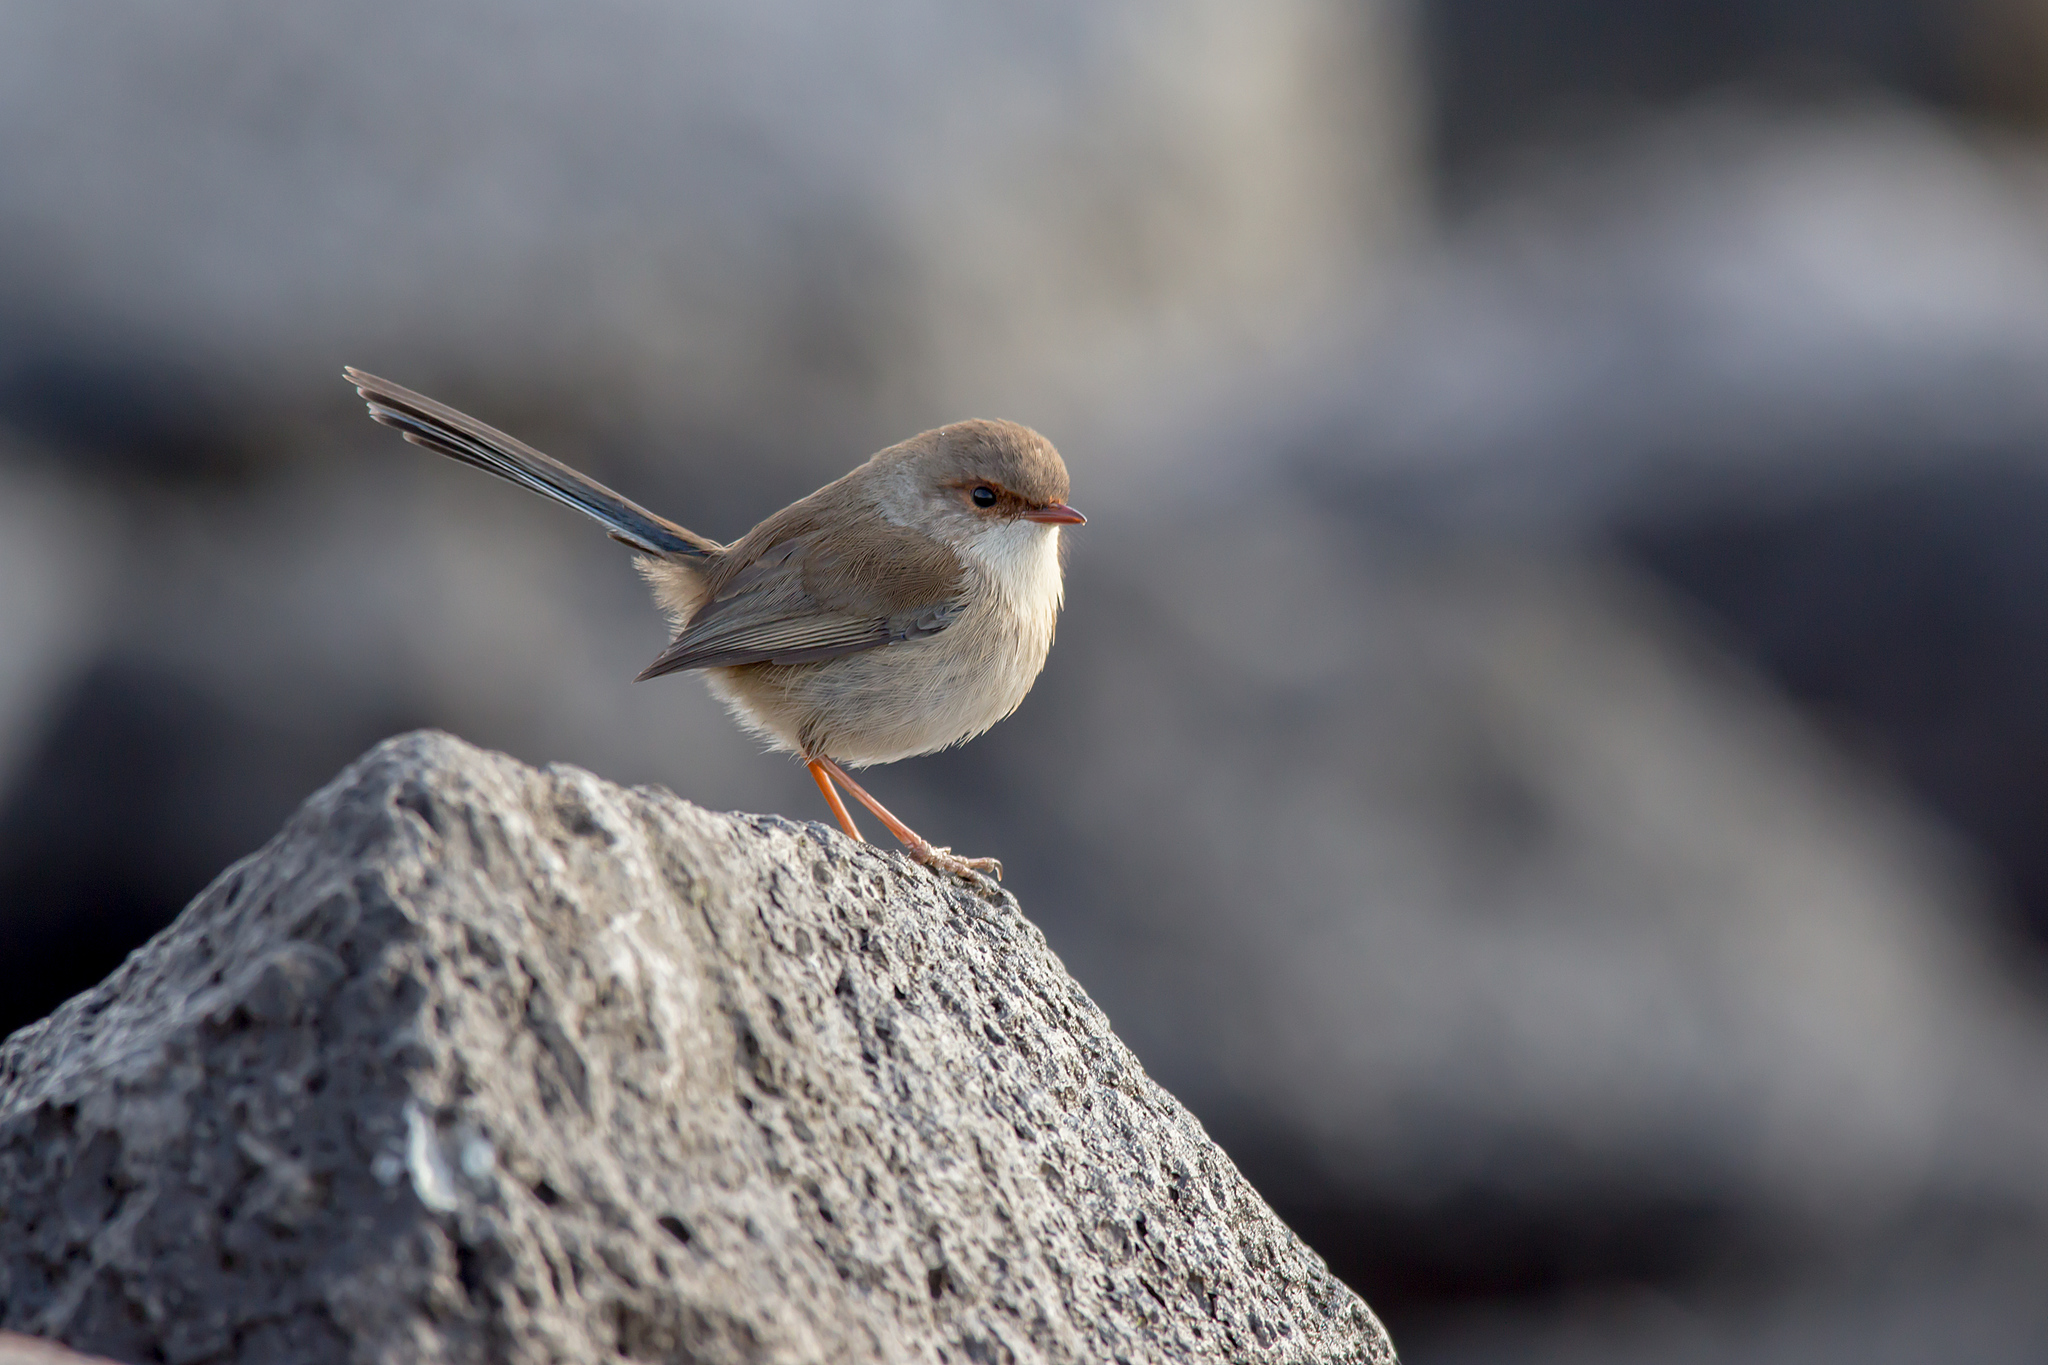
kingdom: Animalia
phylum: Chordata
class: Aves
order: Passeriformes
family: Maluridae
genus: Malurus
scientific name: Malurus cyaneus
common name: Superb fairywren
